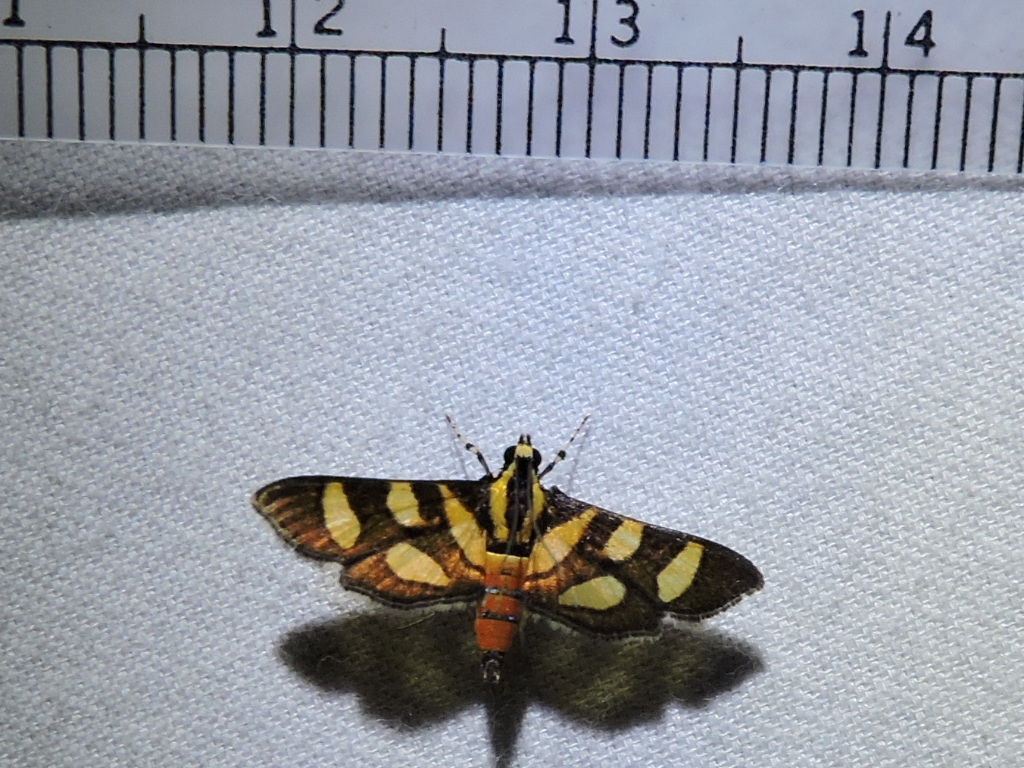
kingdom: Animalia
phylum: Arthropoda
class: Insecta
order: Lepidoptera
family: Crambidae
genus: Syngamia
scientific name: Syngamia florella
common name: Orange-spotted flower moth
